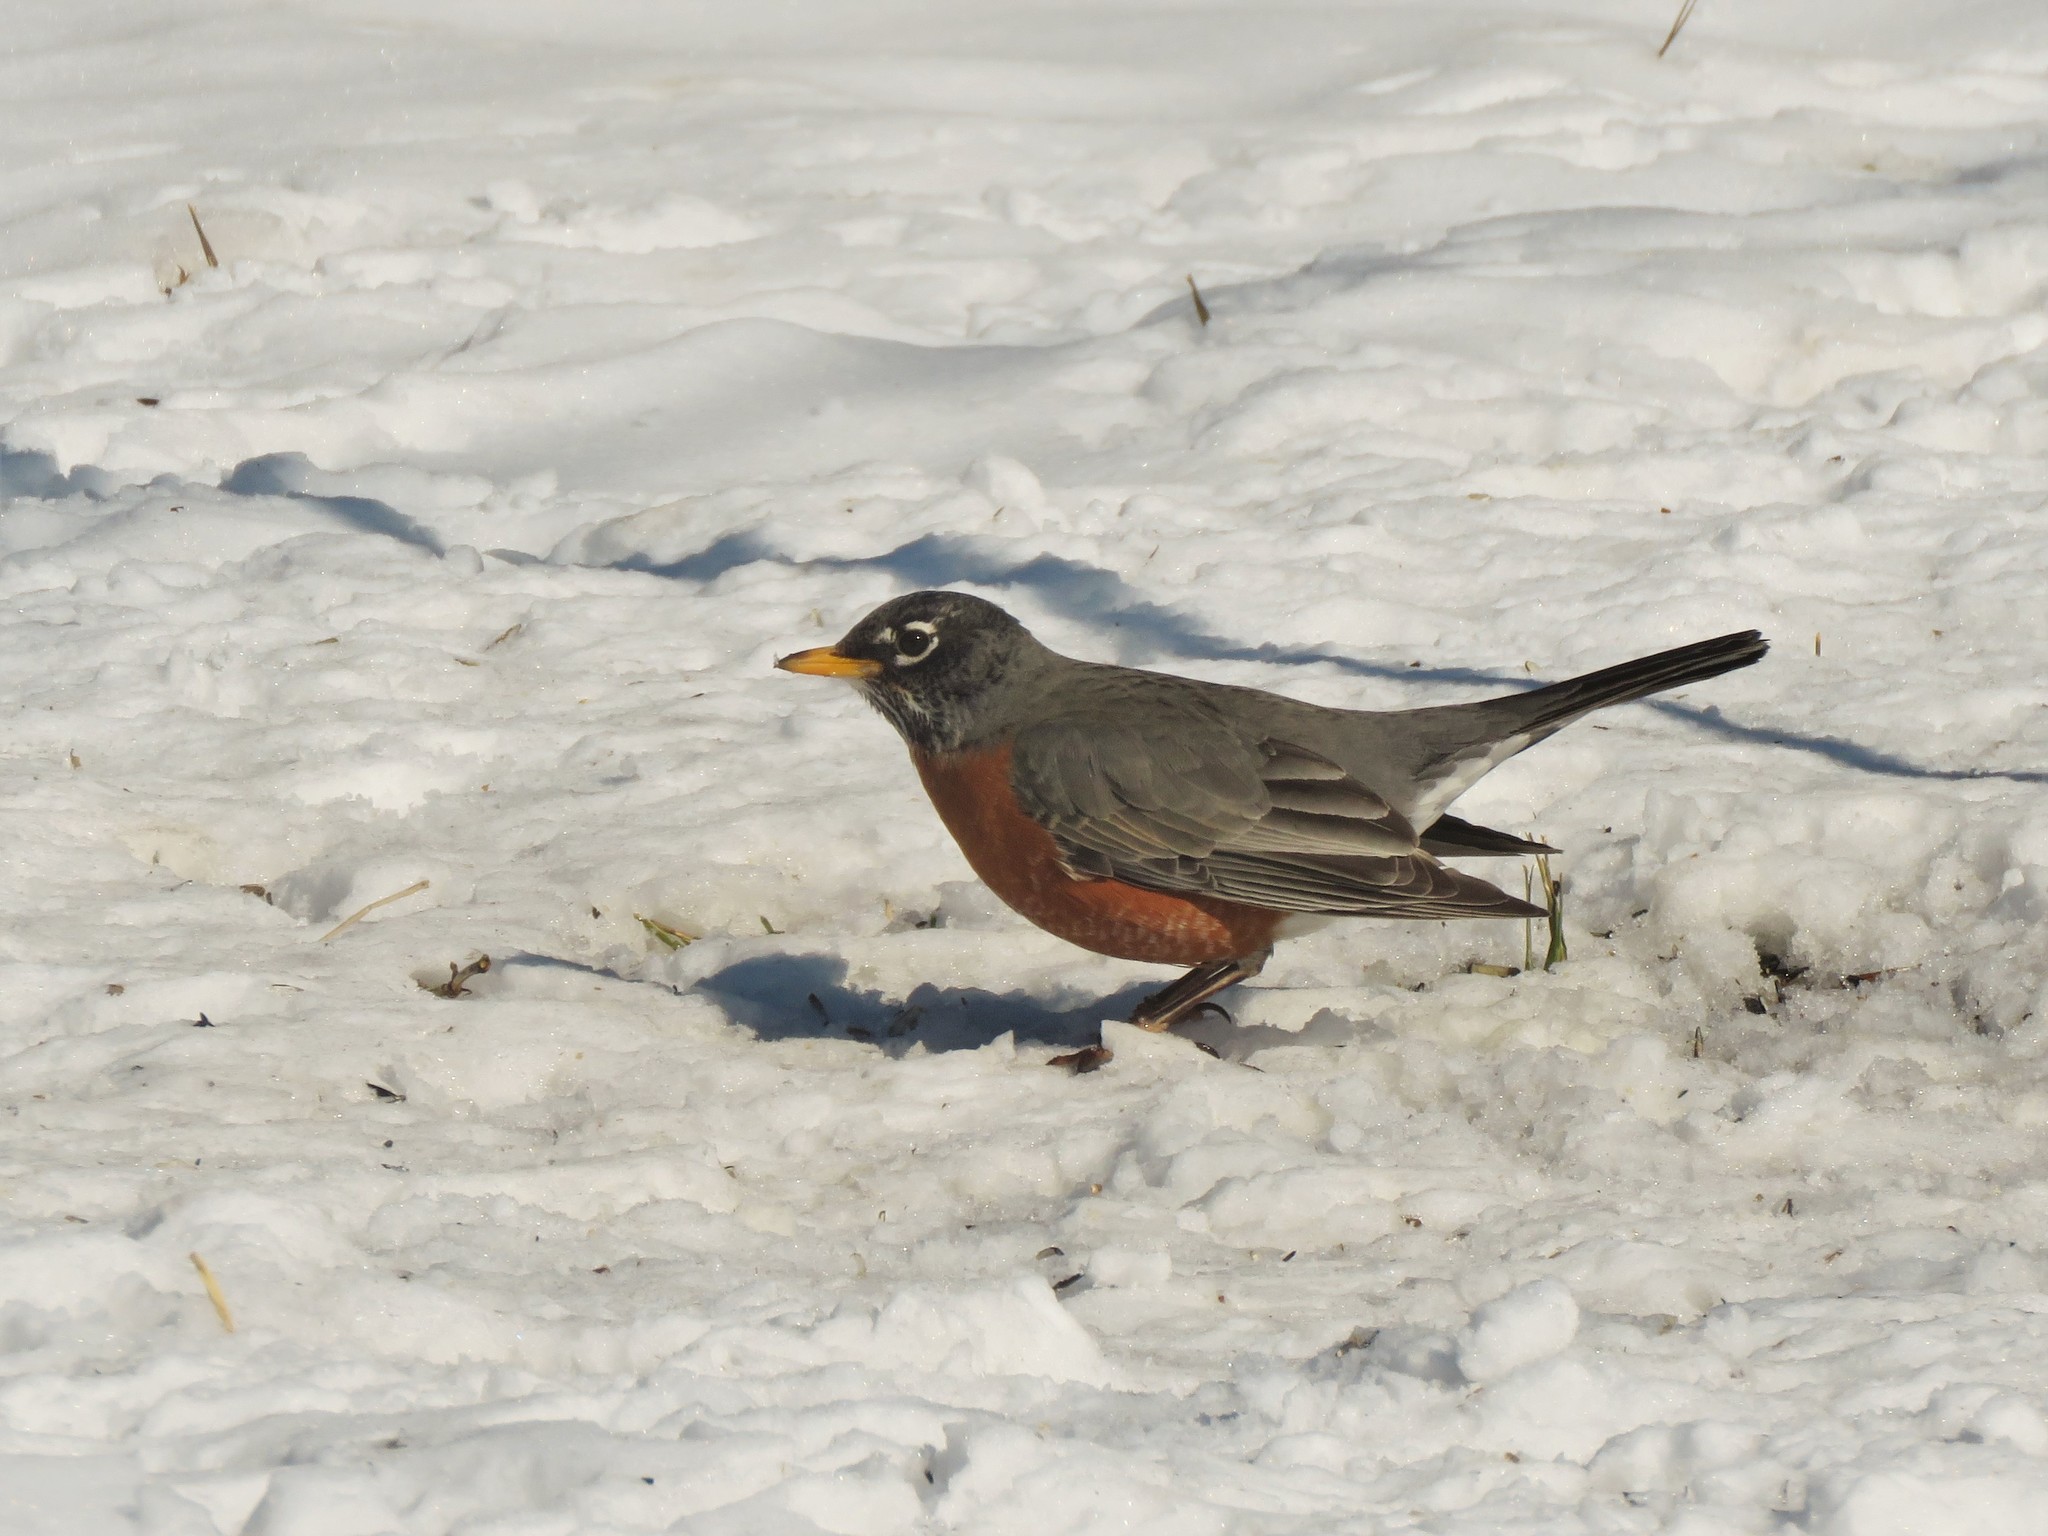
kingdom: Animalia
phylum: Chordata
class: Aves
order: Passeriformes
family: Turdidae
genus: Turdus
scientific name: Turdus migratorius
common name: American robin
